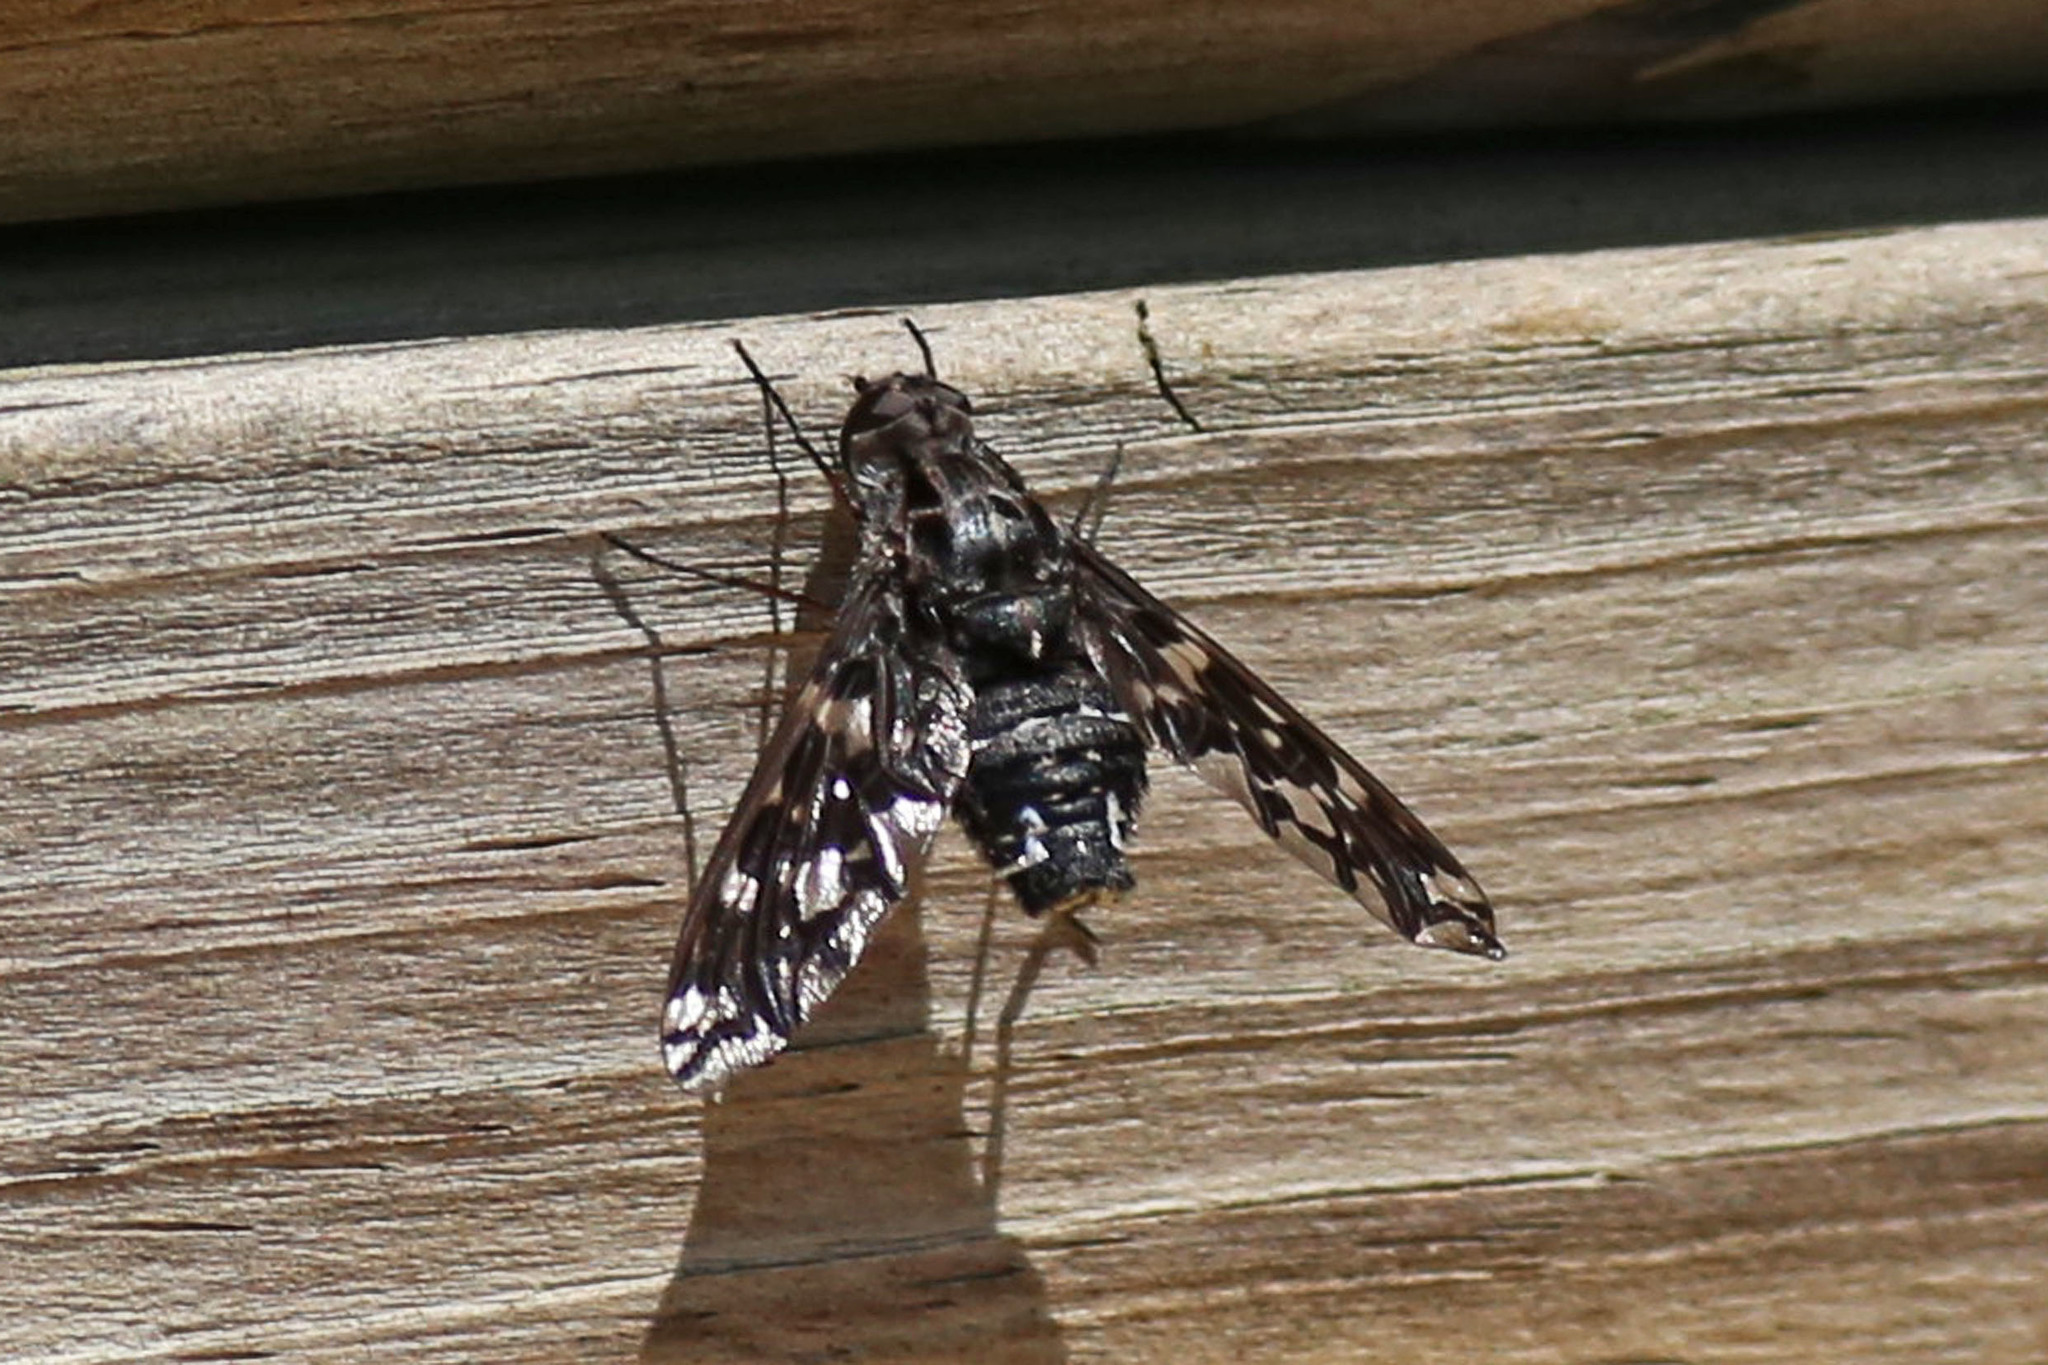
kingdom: Animalia
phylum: Arthropoda
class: Insecta
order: Diptera
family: Bombyliidae
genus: Xenox
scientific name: Xenox tigrinus
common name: Tiger bee fly
